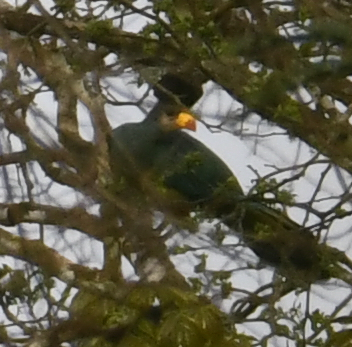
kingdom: Animalia
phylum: Chordata
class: Aves
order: Musophagiformes
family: Musophagidae
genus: Corythaeola
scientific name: Corythaeola cristata
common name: Great blue turaco
